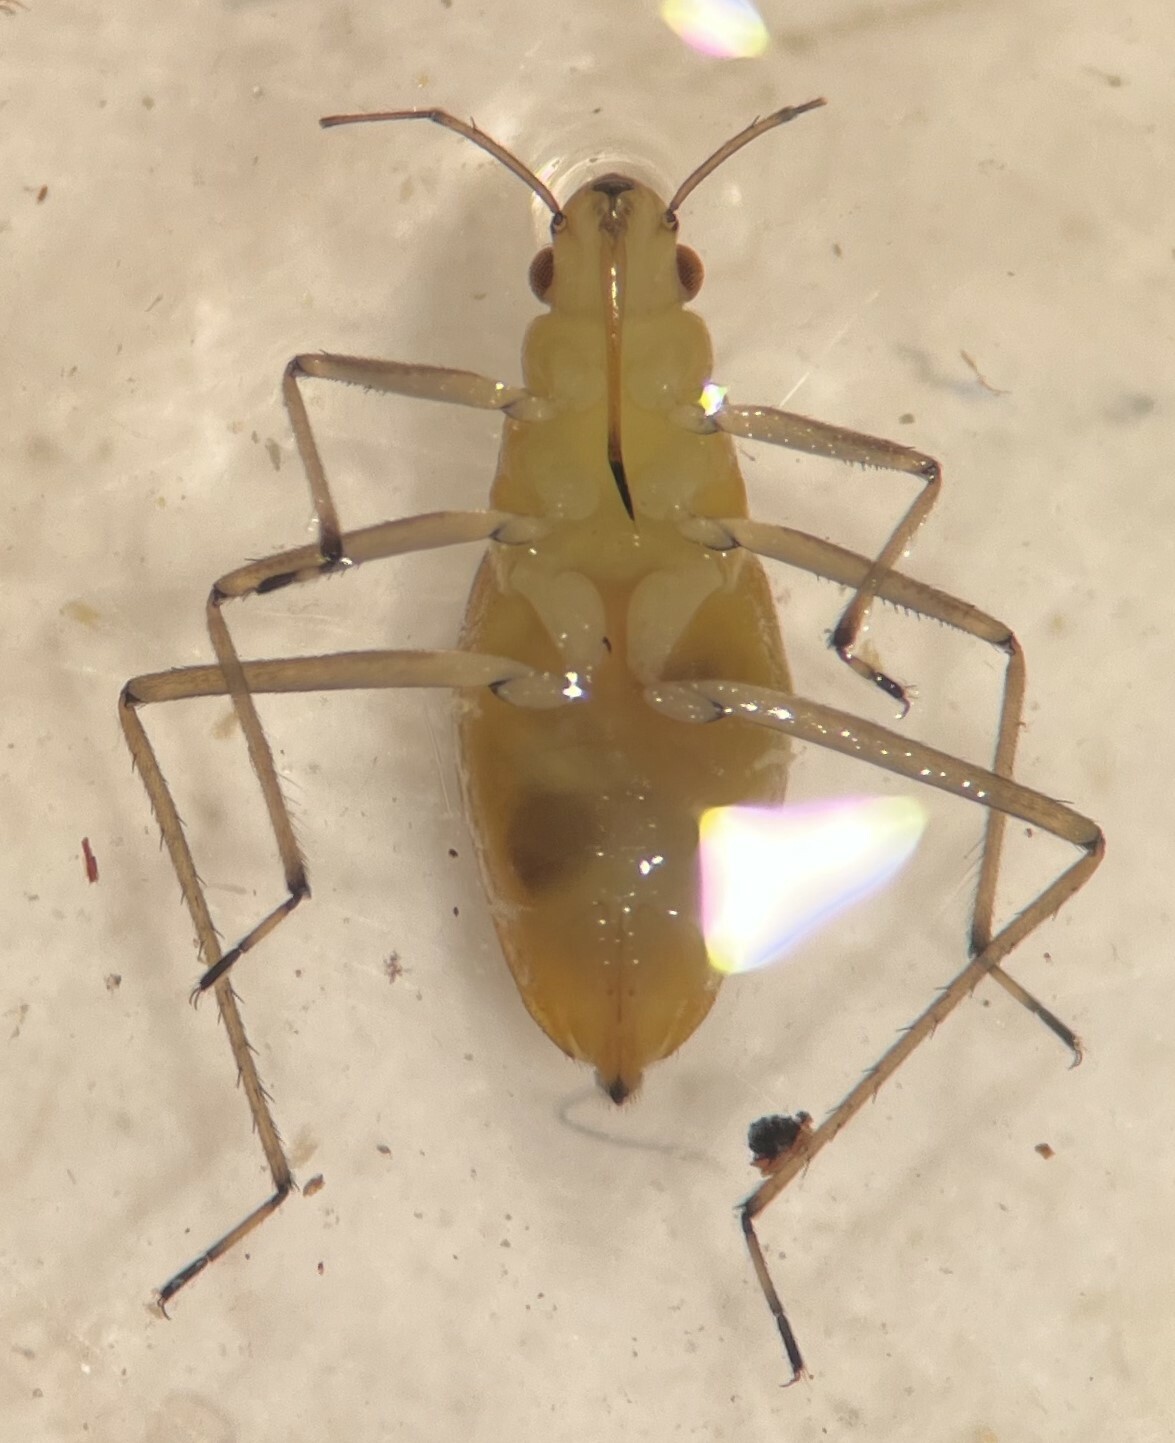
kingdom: Animalia
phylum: Arthropoda
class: Insecta
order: Hemiptera
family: Mesoveliidae
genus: Mesovelia
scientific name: Mesovelia mulsanti
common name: Water treaders
